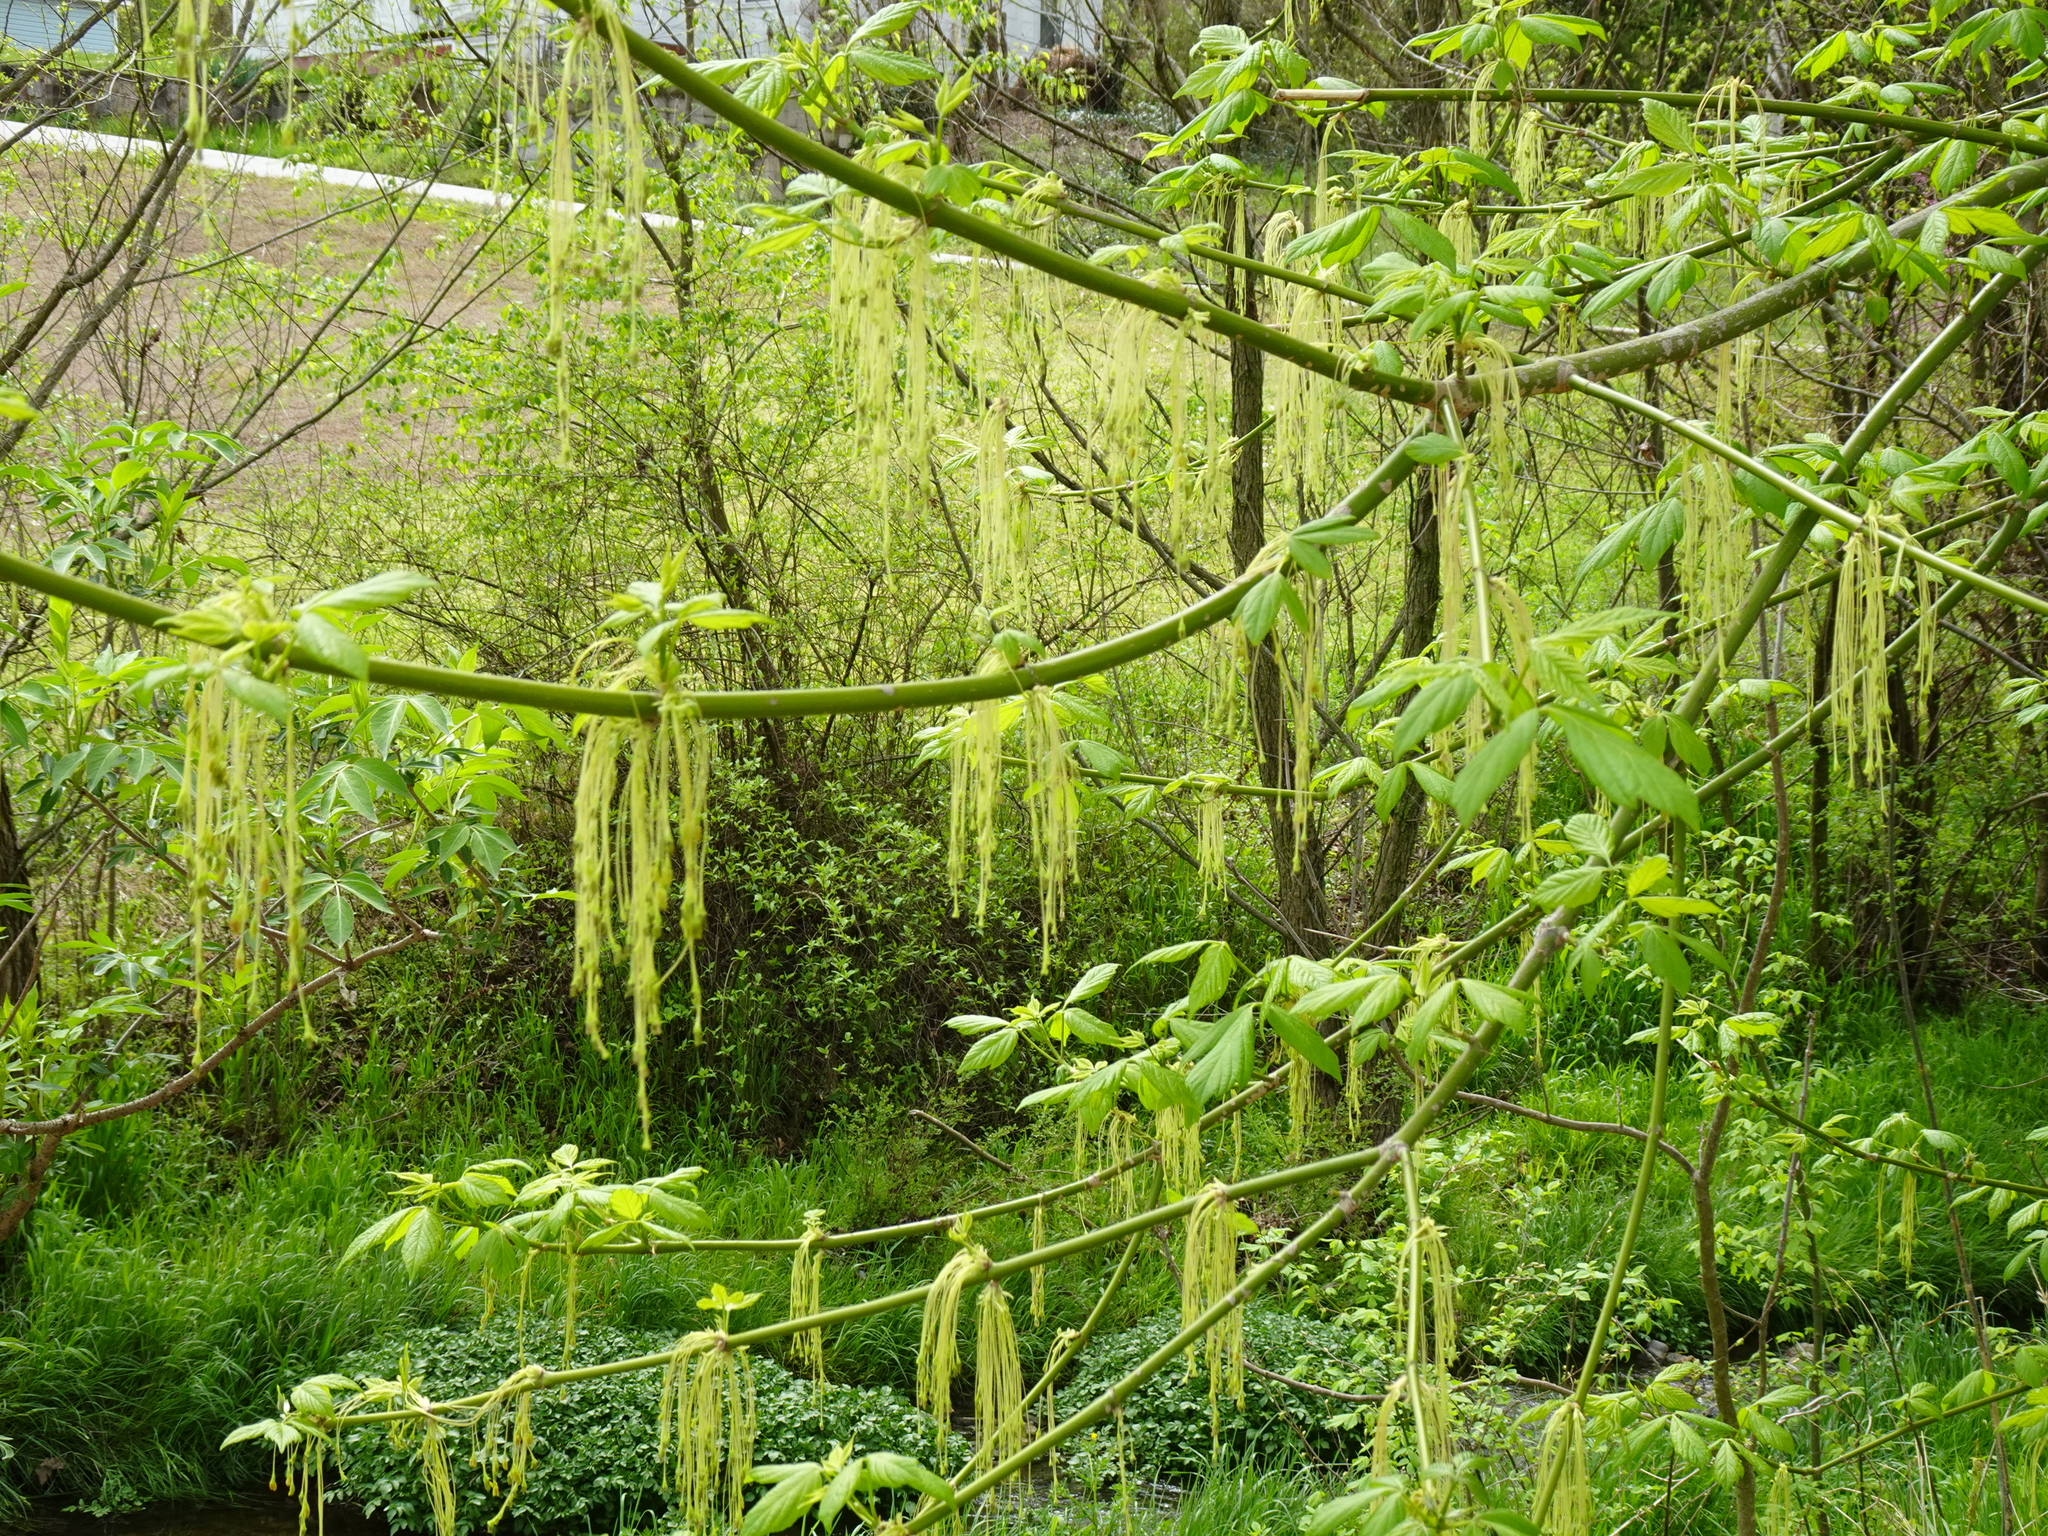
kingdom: Plantae
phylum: Tracheophyta
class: Magnoliopsida
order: Sapindales
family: Sapindaceae
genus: Acer
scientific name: Acer negundo
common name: Ashleaf maple
